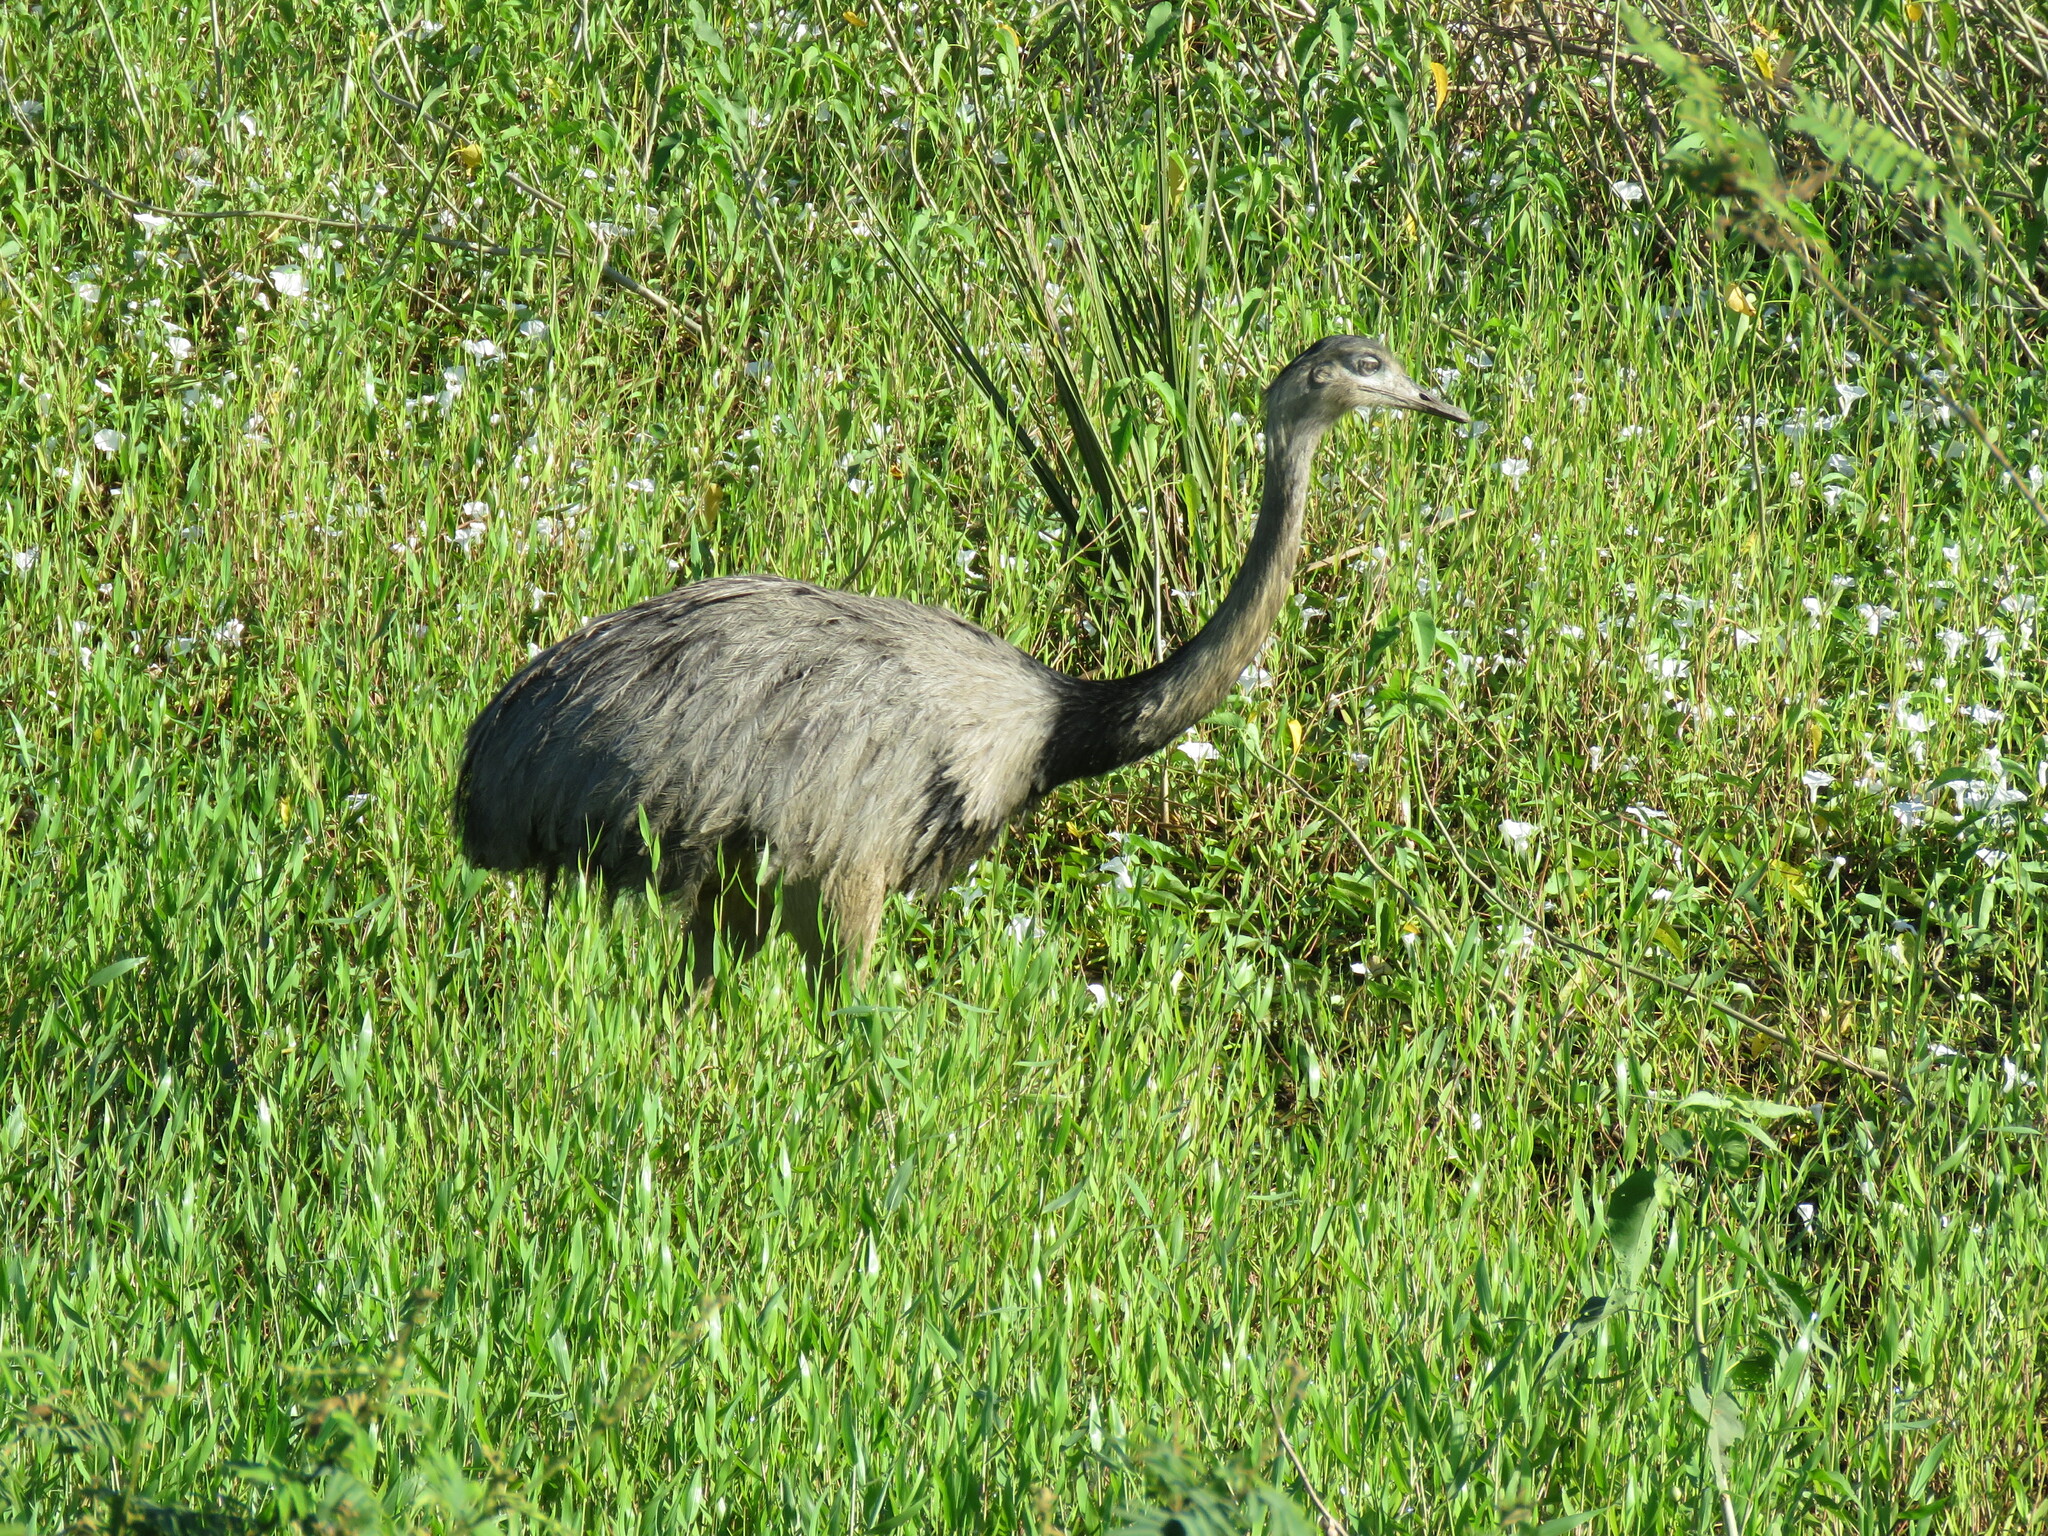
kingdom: Animalia
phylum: Chordata
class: Aves
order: Rheiformes
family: Rheidae
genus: Rhea
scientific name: Rhea americana
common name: Greater rhea
